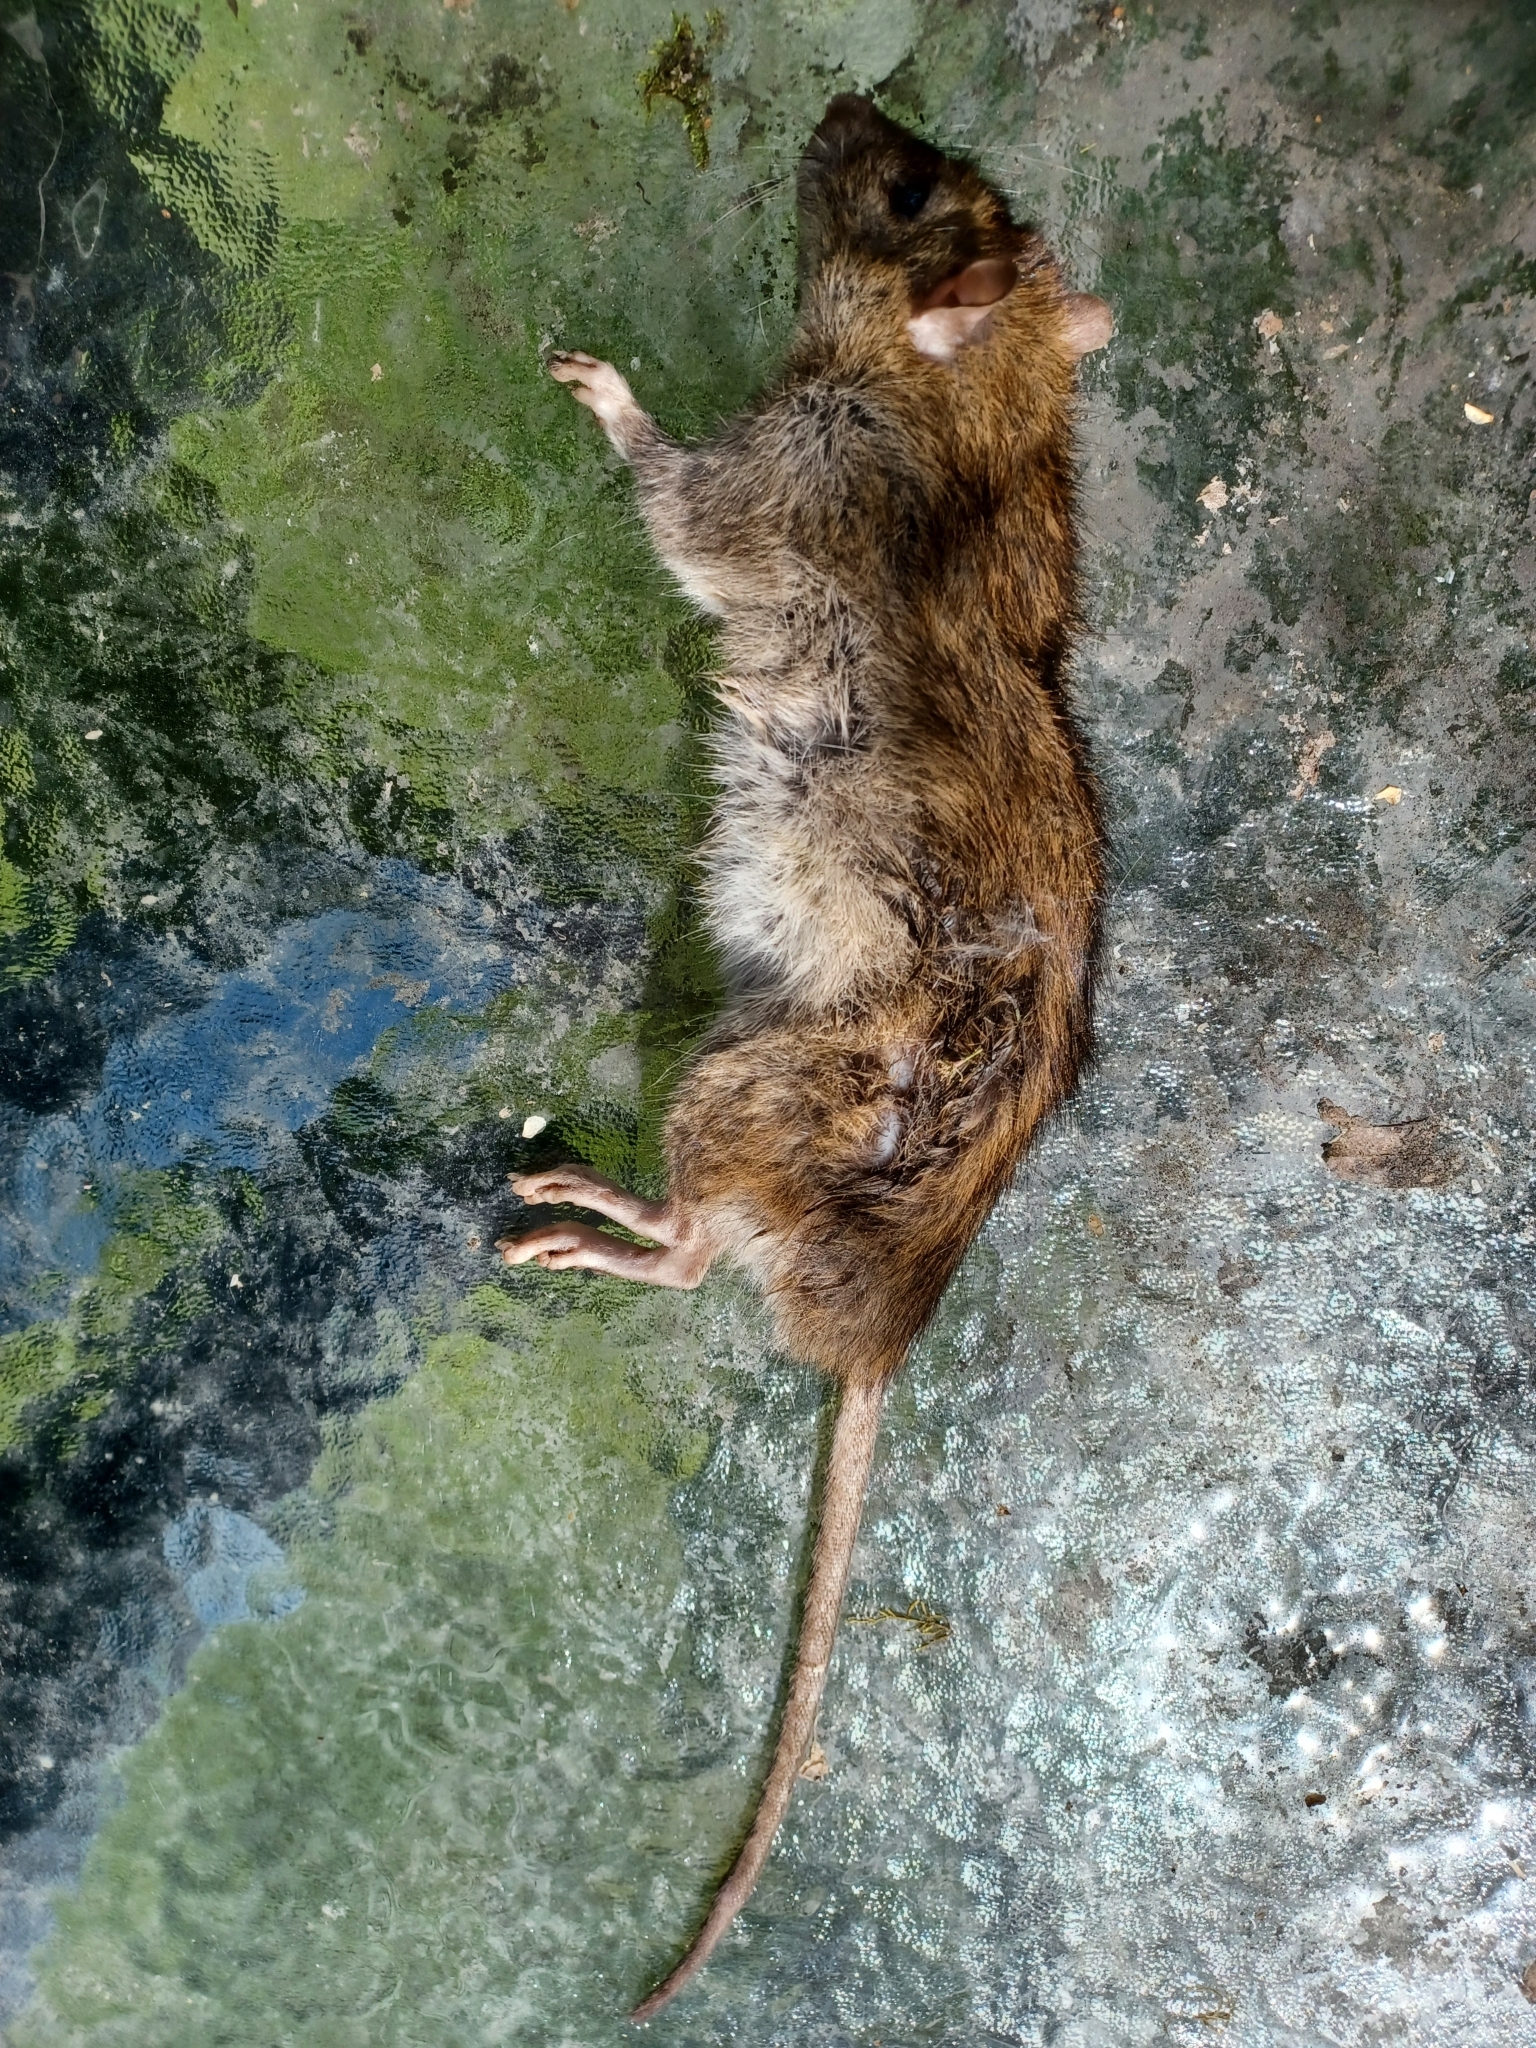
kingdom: Animalia
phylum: Chordata
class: Mammalia
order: Rodentia
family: Muridae
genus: Rattus
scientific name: Rattus norvegicus
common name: Brown rat
